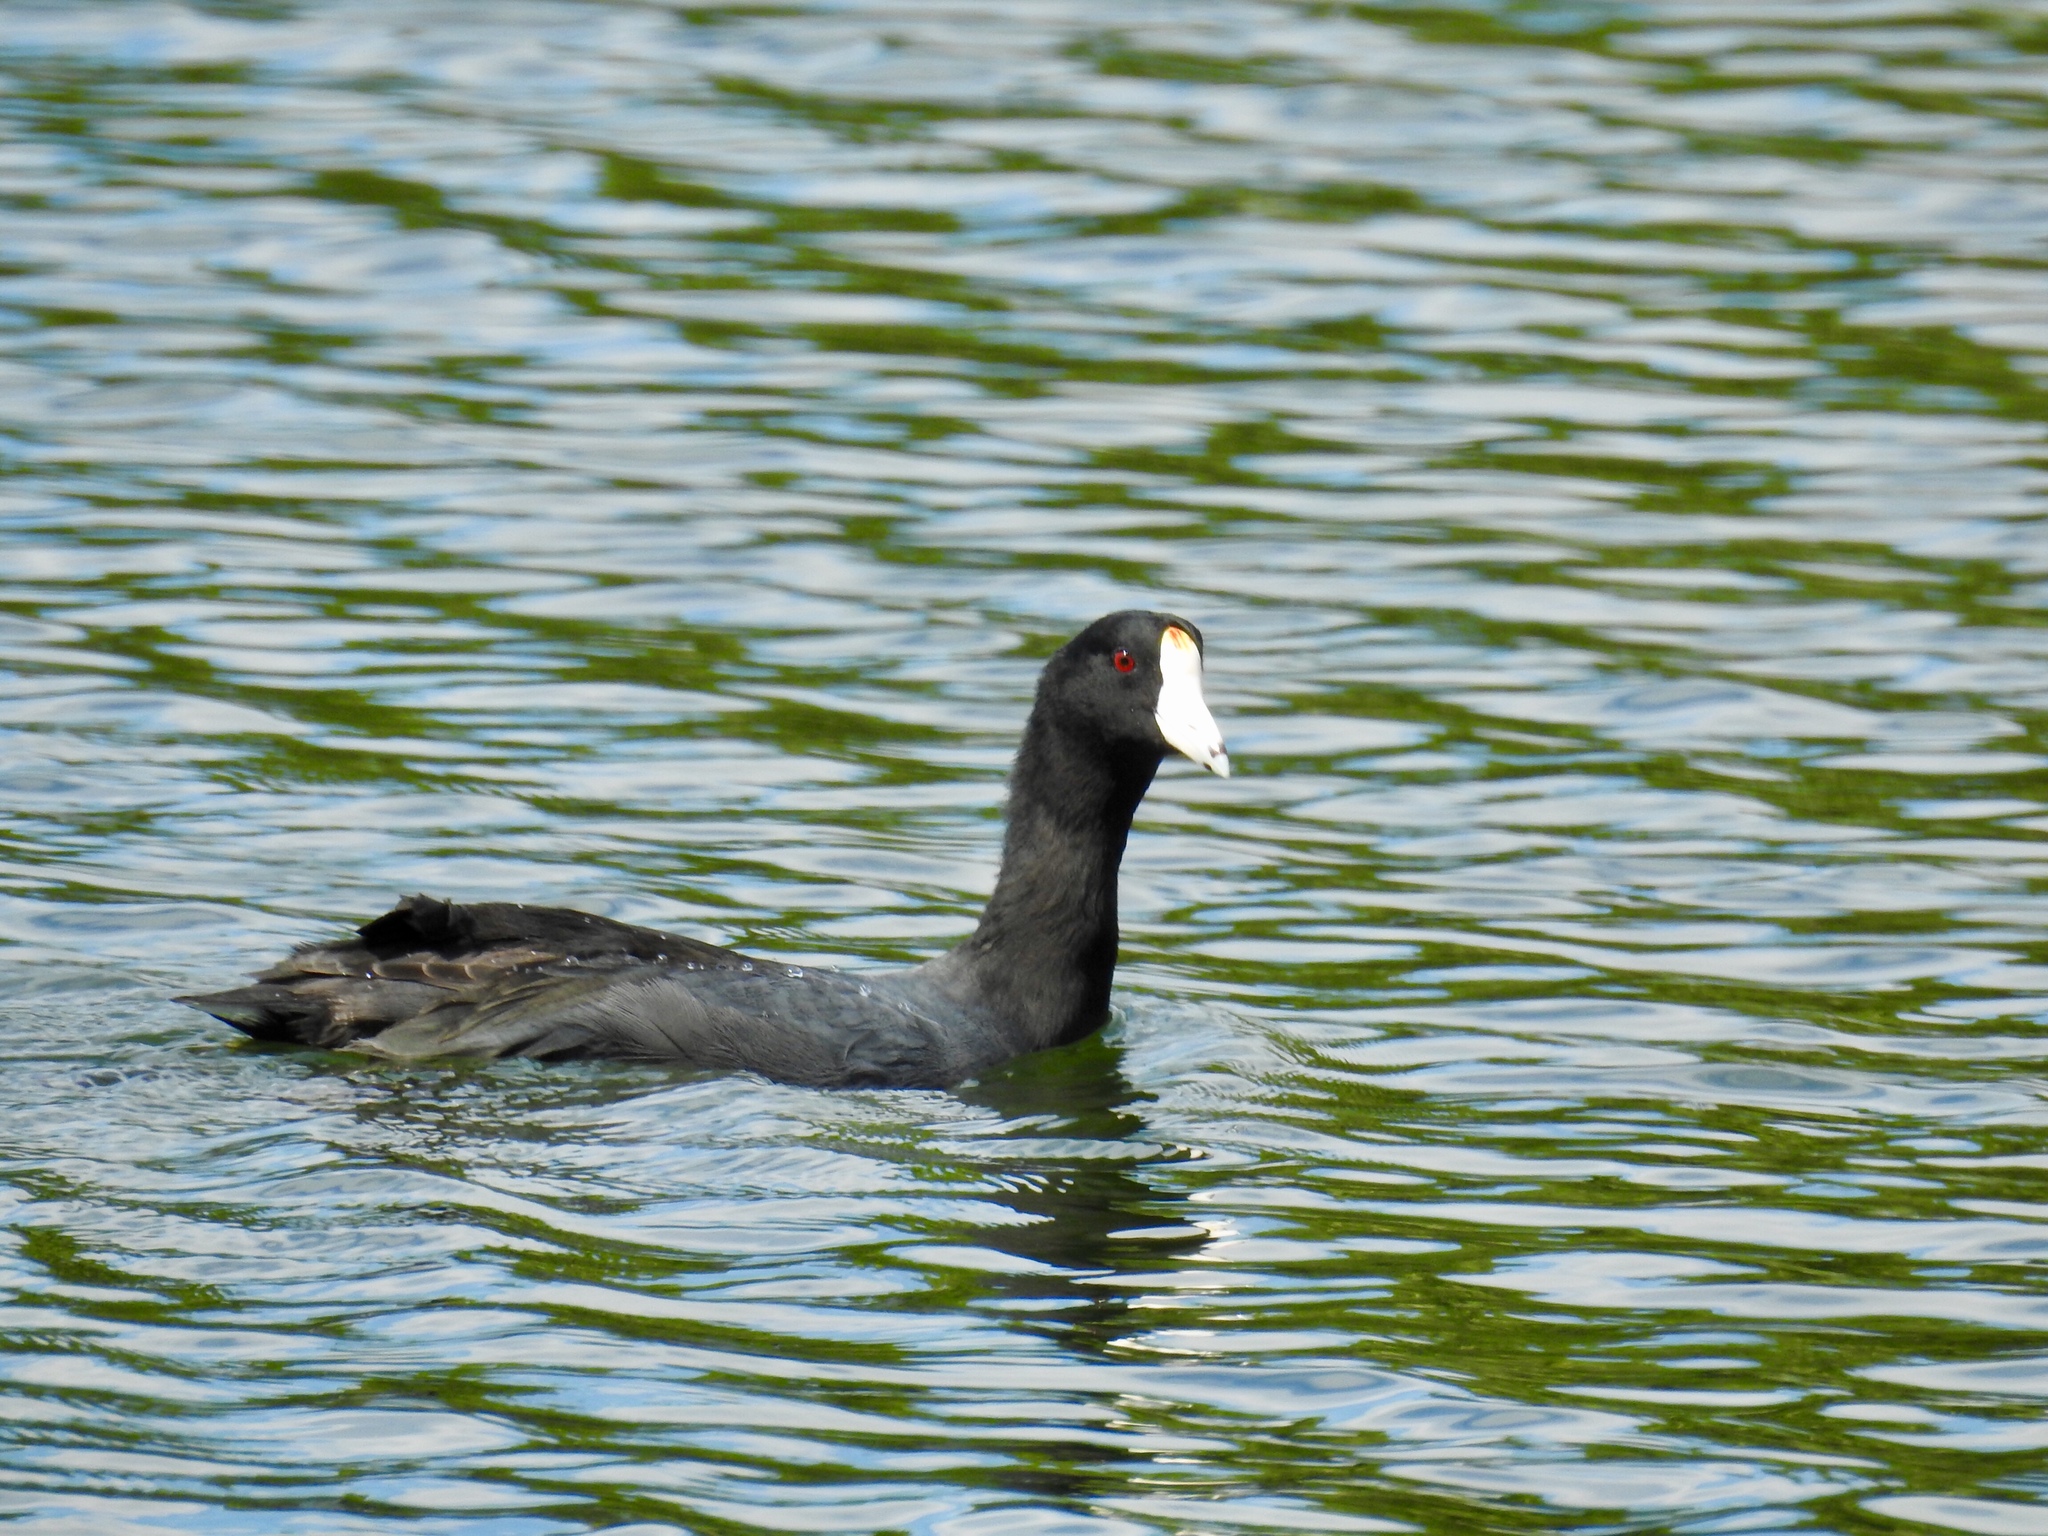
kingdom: Animalia
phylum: Chordata
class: Aves
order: Gruiformes
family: Rallidae
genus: Fulica
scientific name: Fulica americana
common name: American coot
